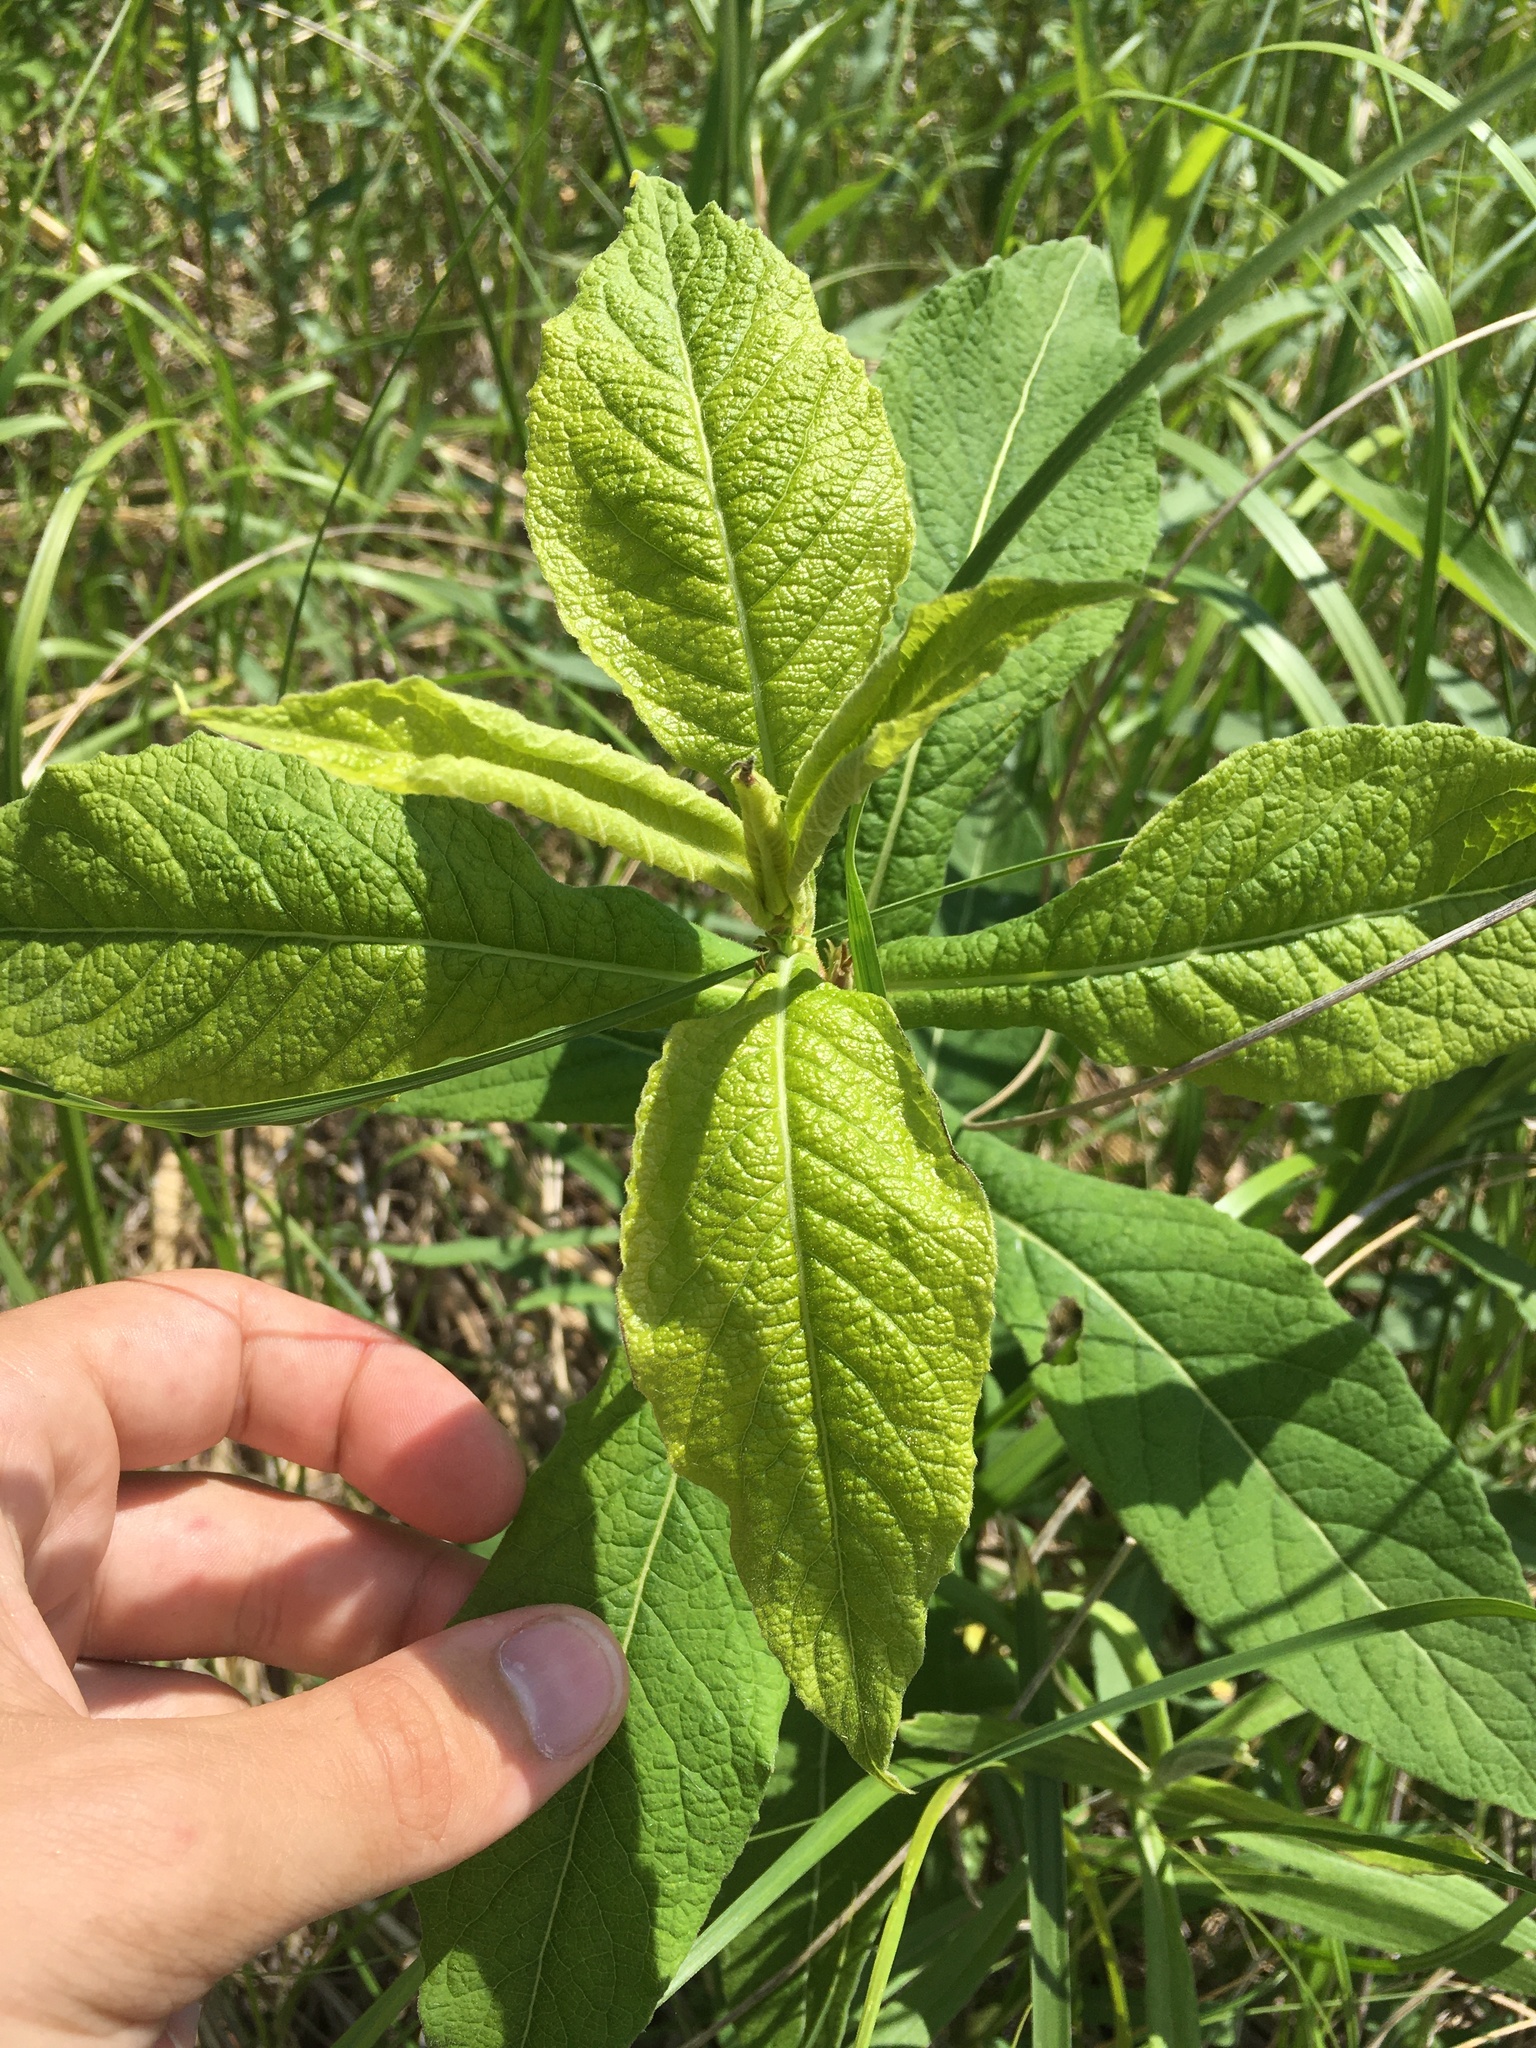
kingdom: Plantae
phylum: Tracheophyta
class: Magnoliopsida
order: Dipsacales
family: Caprifoliaceae
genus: Triosteum
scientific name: Triosteum perfoliatum
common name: Common horse-gentian
